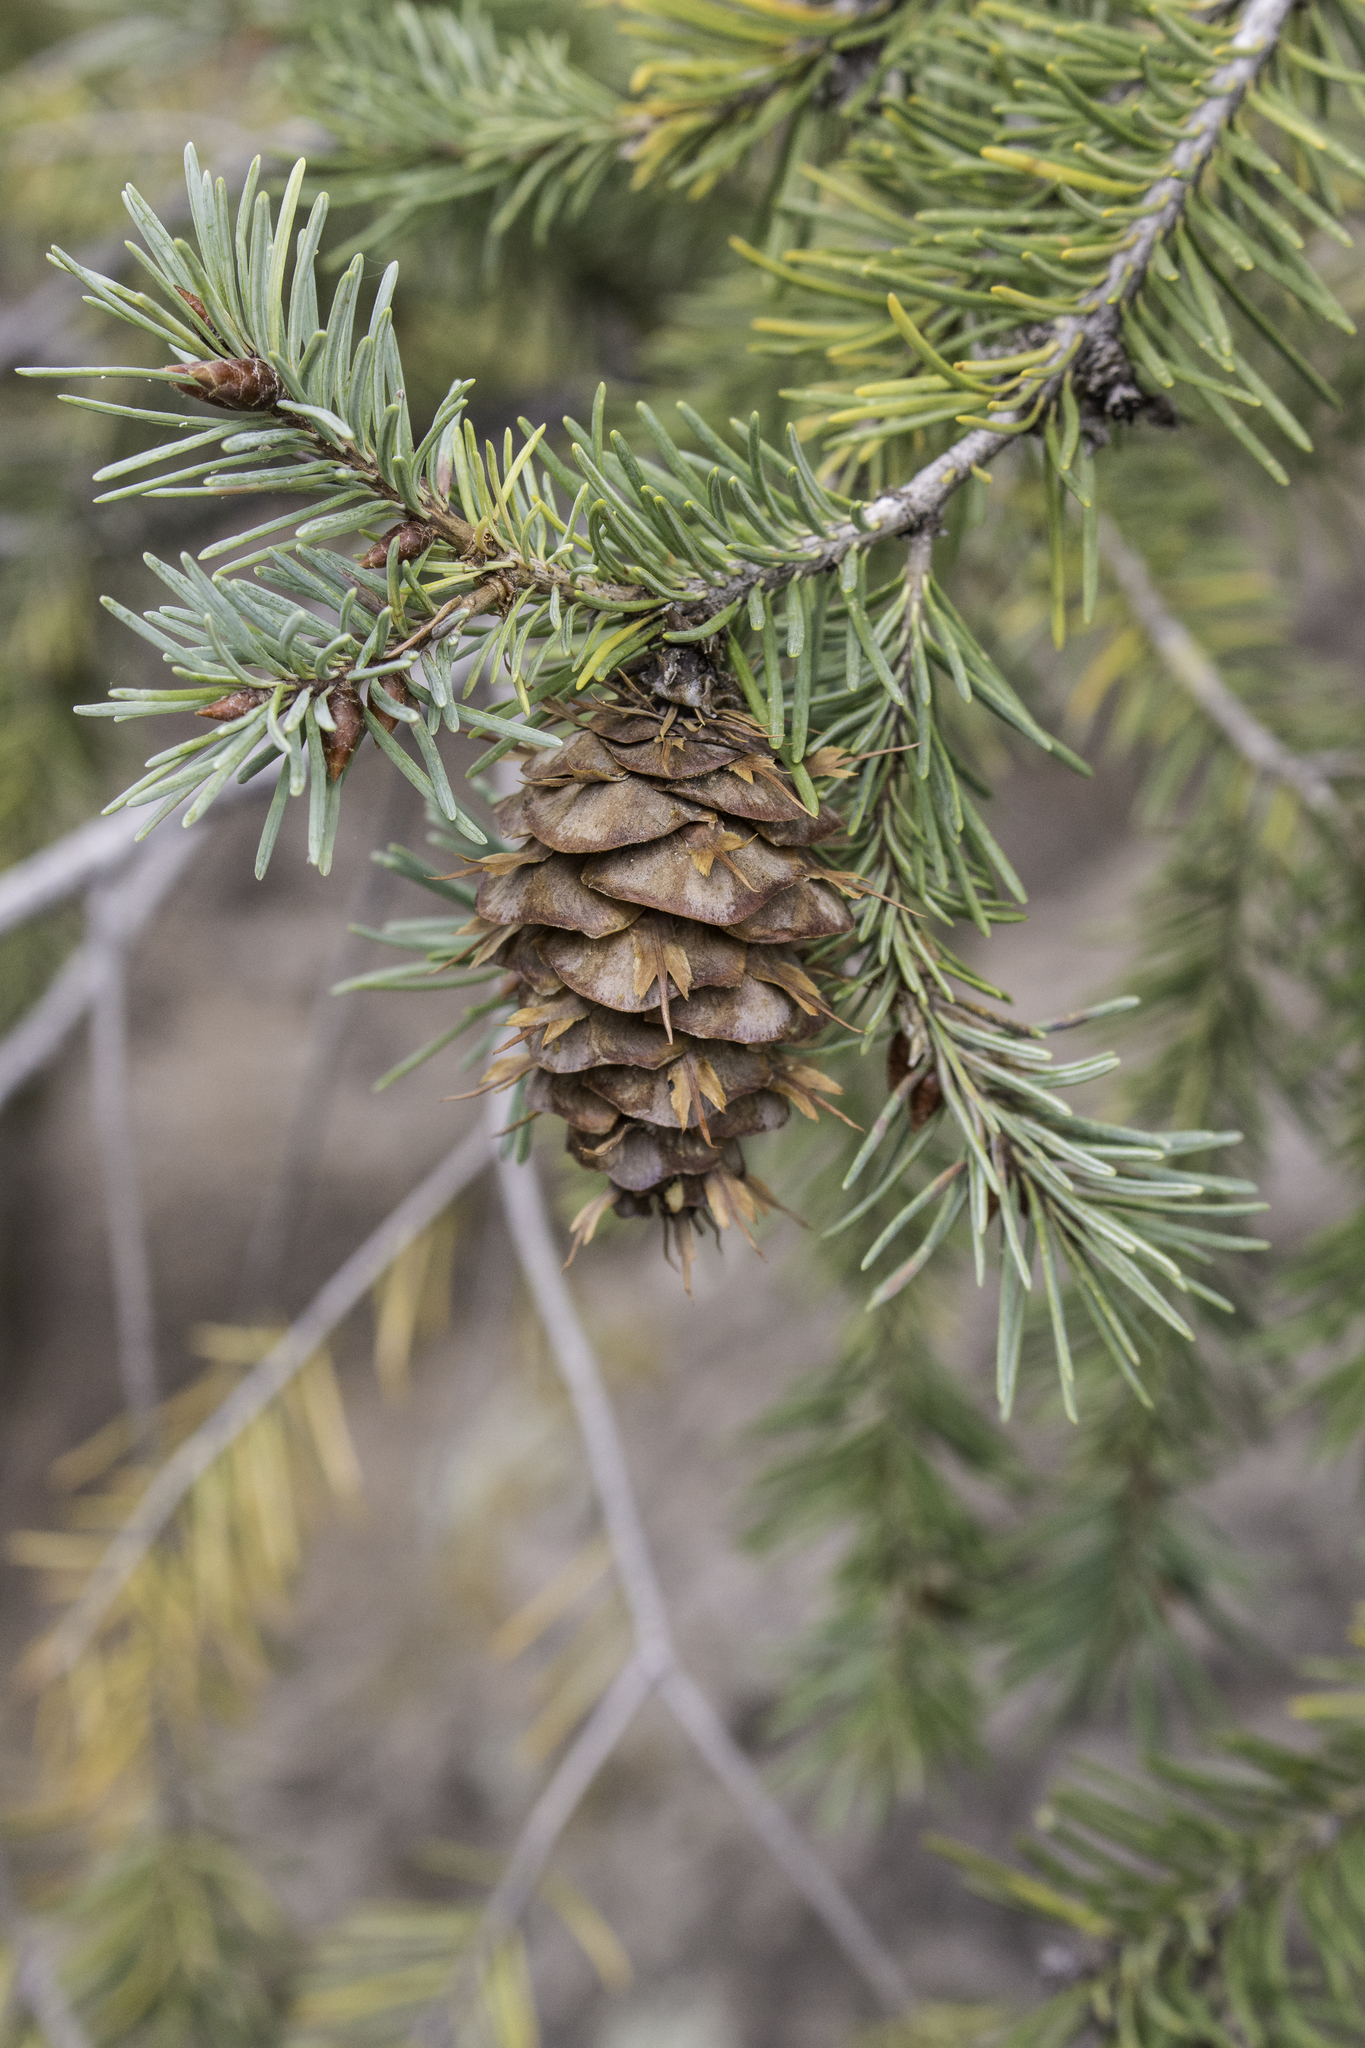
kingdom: Plantae
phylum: Tracheophyta
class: Pinopsida
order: Pinales
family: Pinaceae
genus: Pseudotsuga
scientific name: Pseudotsuga menziesii
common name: Douglas fir
